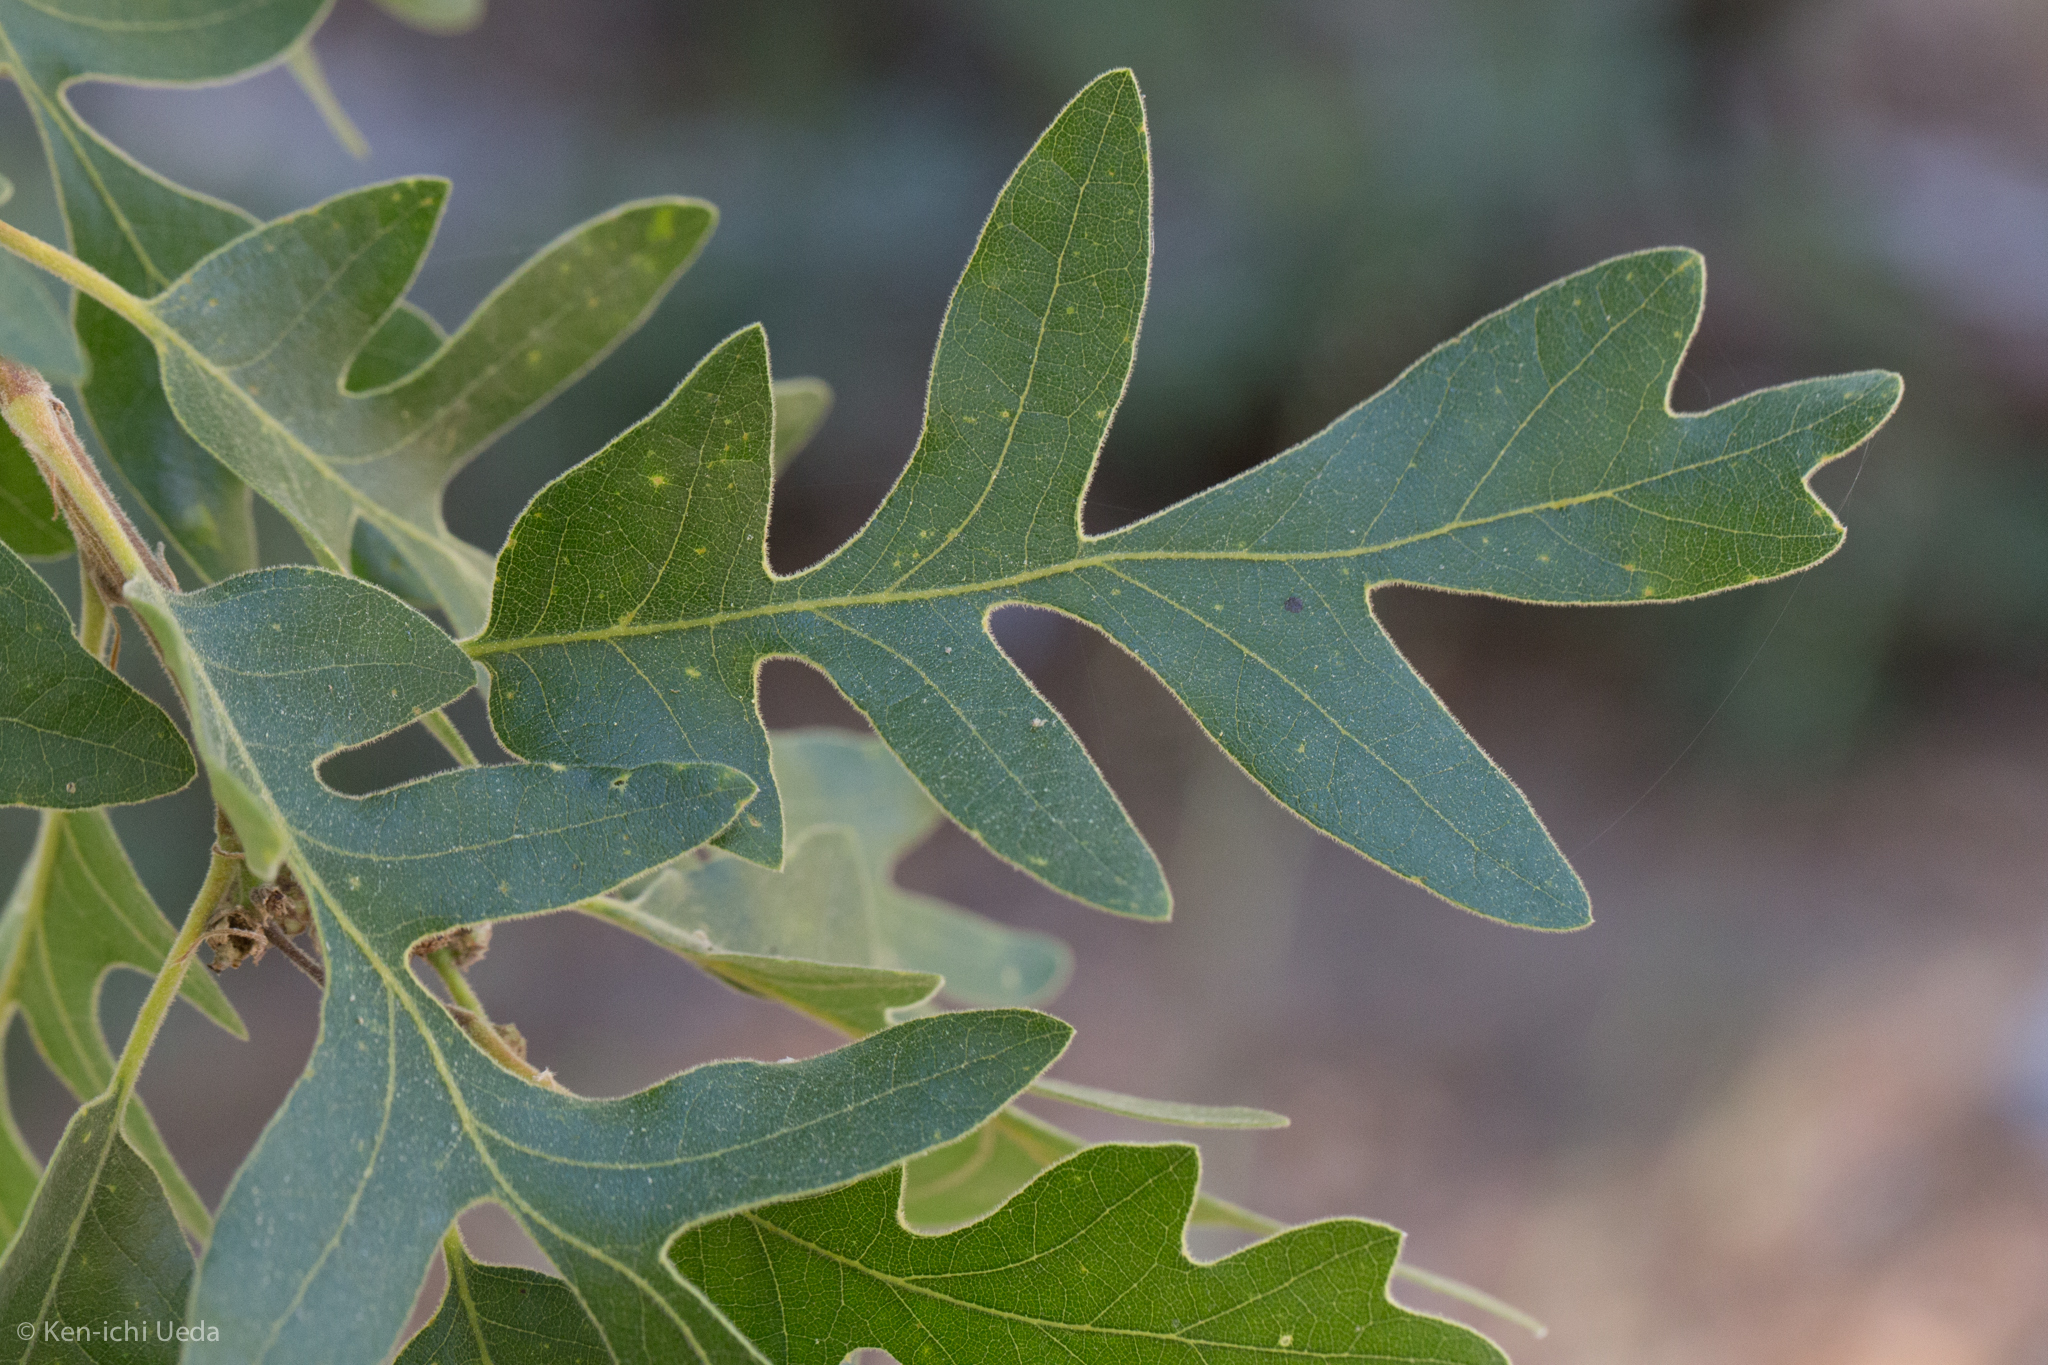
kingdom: Plantae
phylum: Tracheophyta
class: Magnoliopsida
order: Fagales
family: Fagaceae
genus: Quercus
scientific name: Quercus gambelii
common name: Gambel oak
